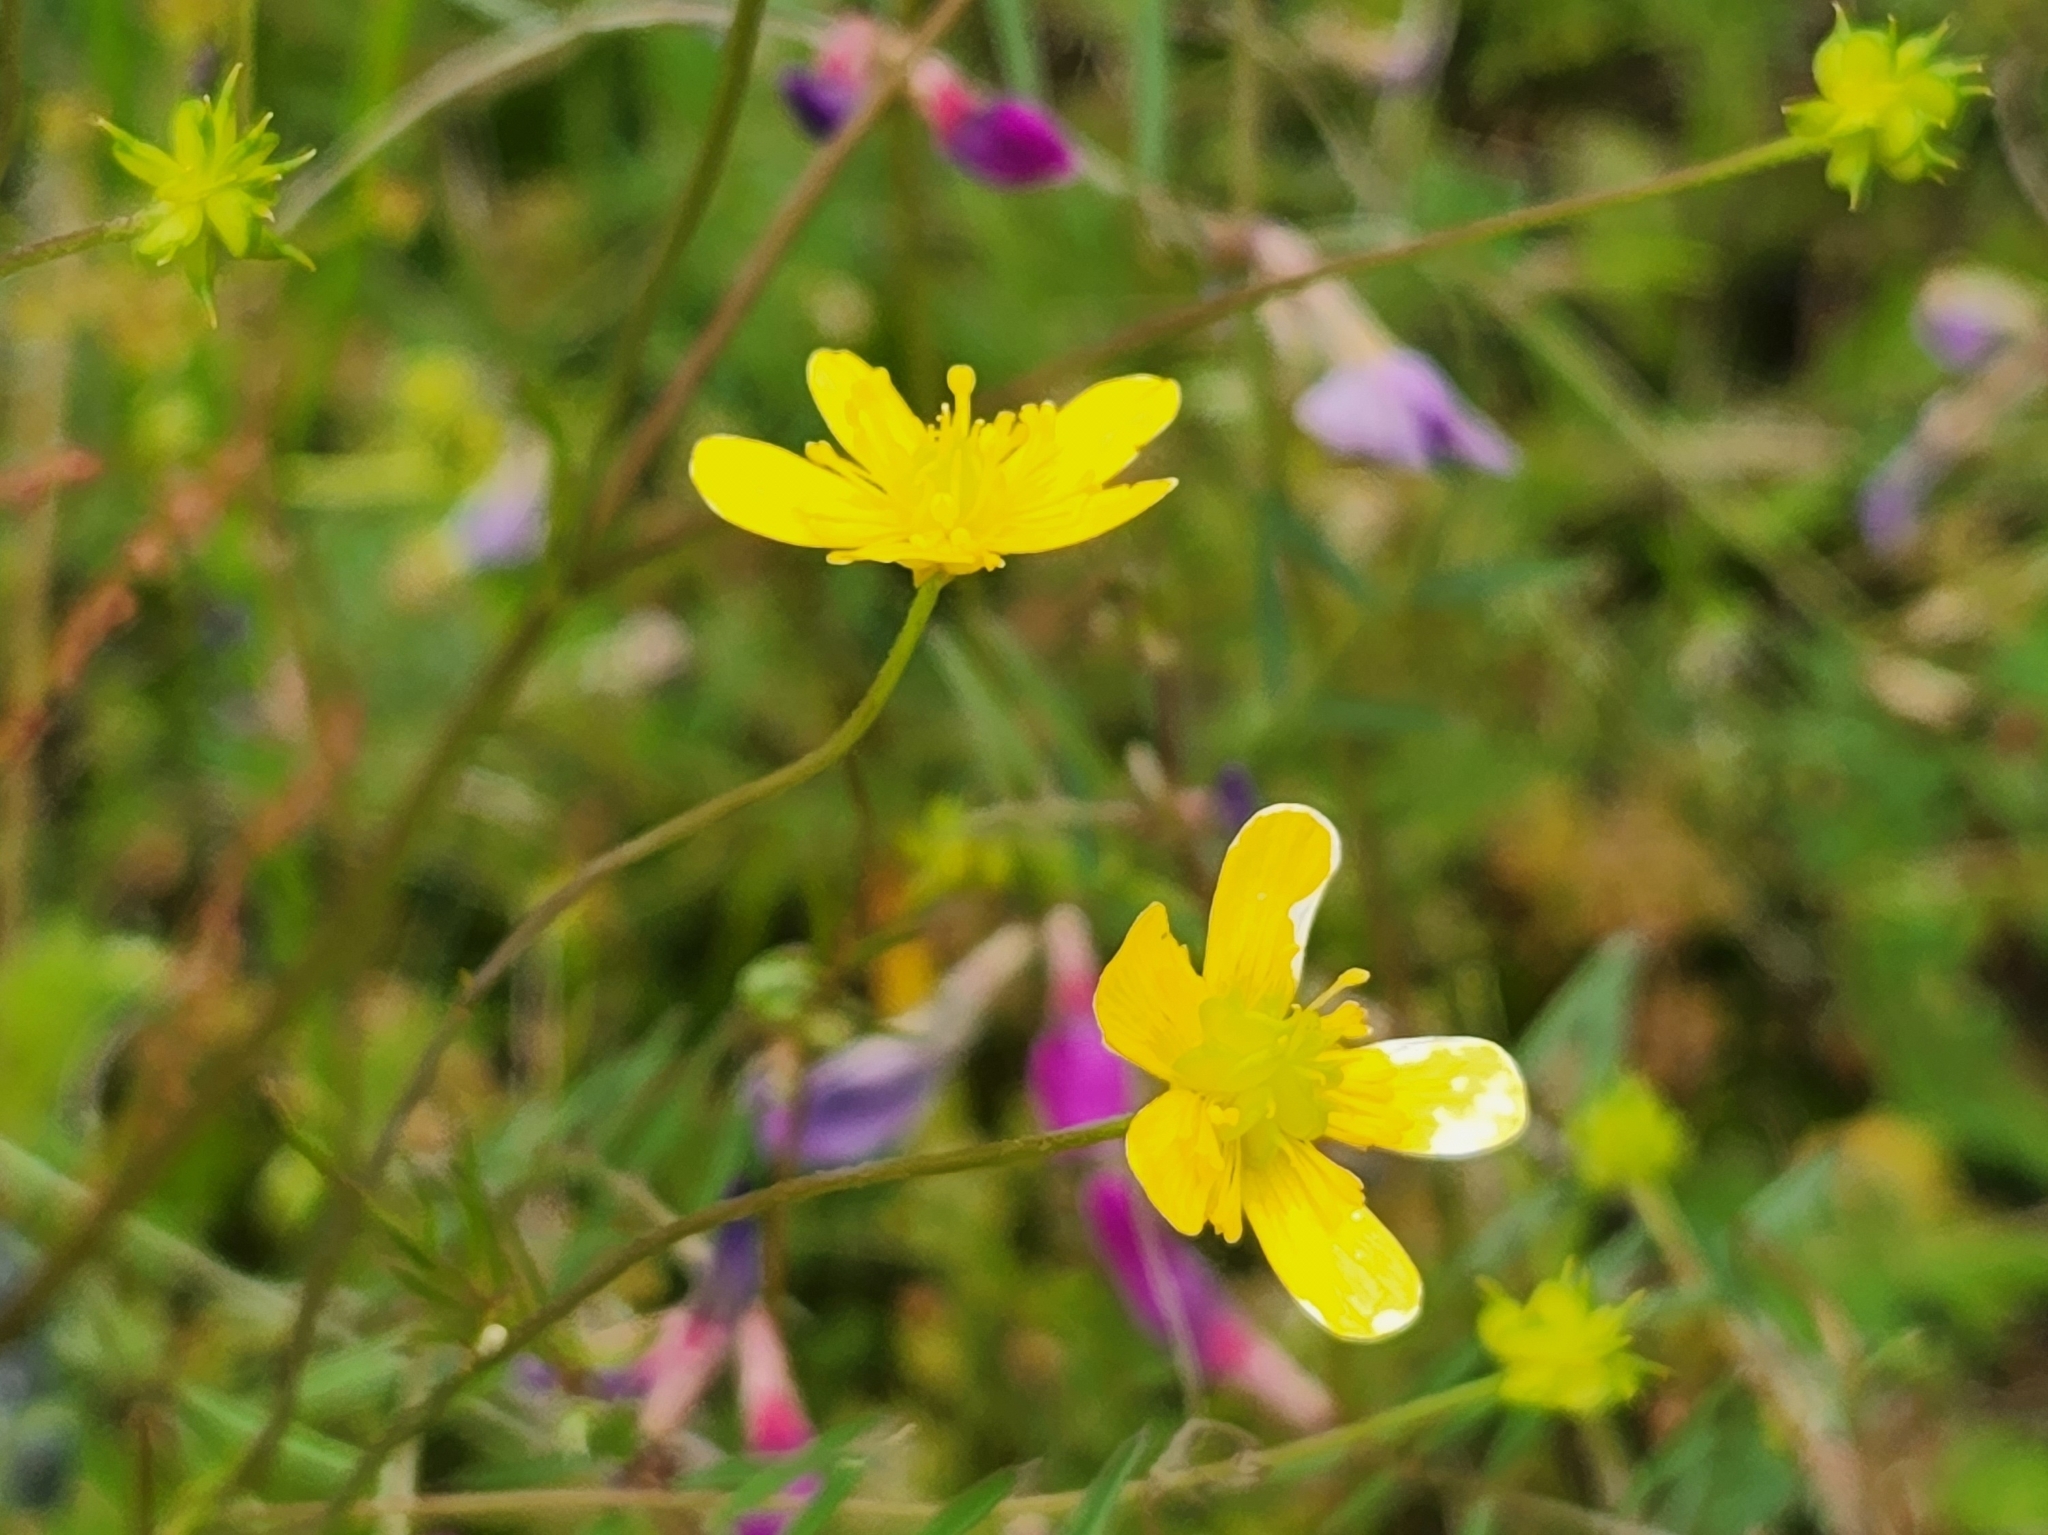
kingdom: Plantae
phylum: Tracheophyta
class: Magnoliopsida
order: Ranunculales
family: Ranunculaceae
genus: Ranunculus
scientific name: Ranunculus occidentalis
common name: Western buttercup
